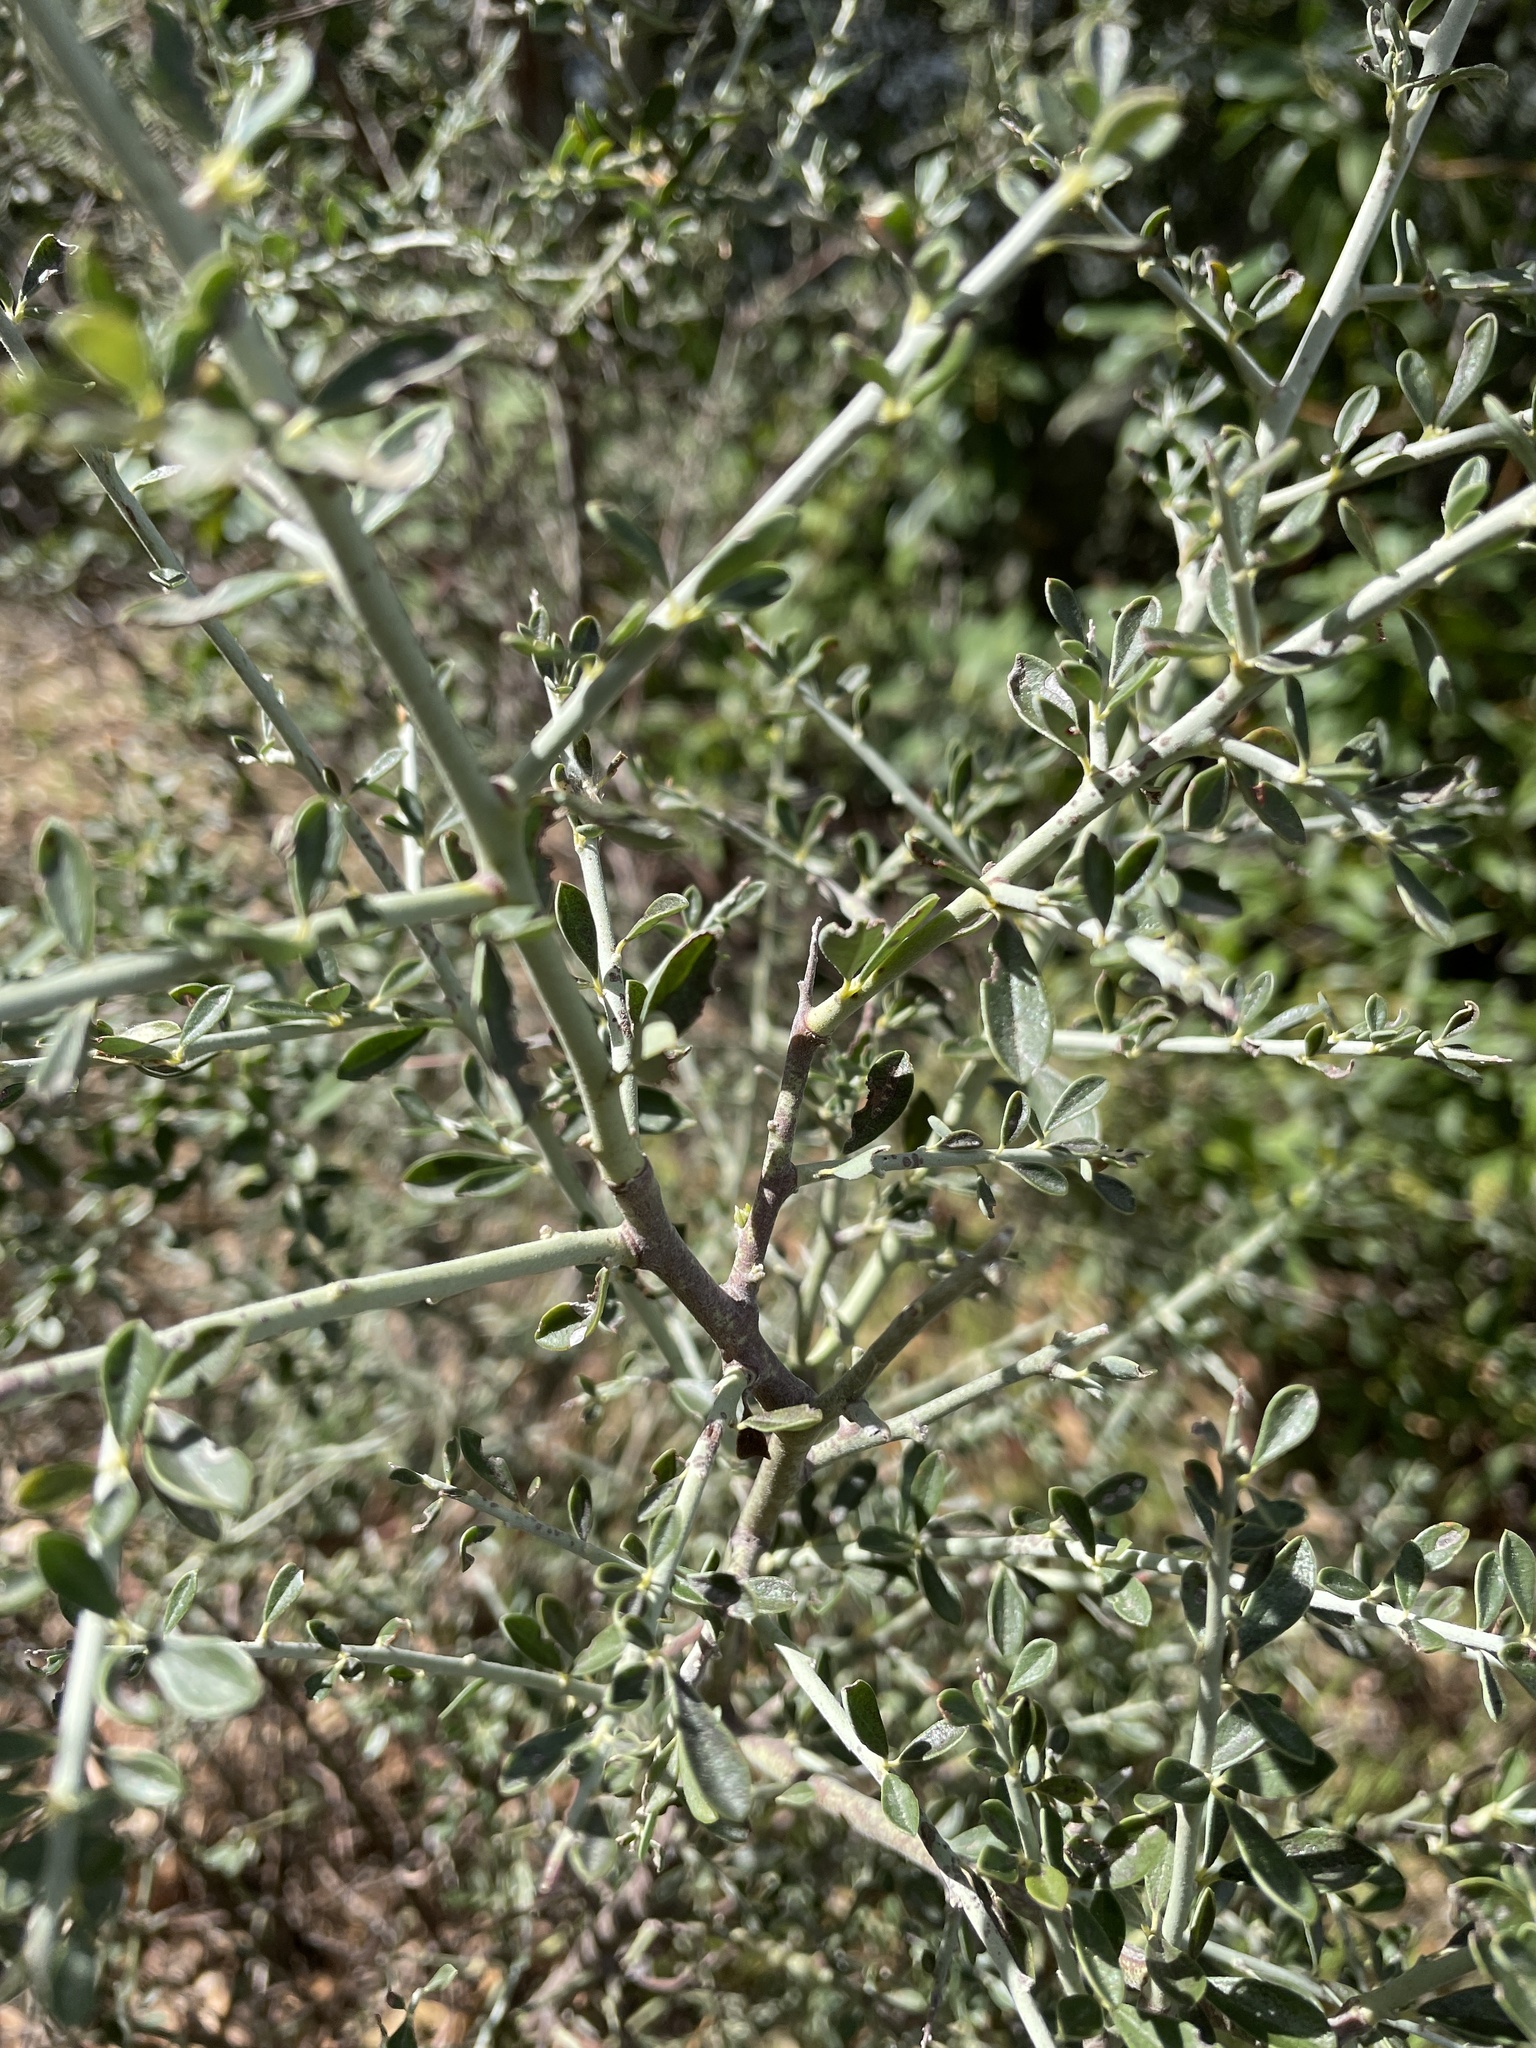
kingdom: Plantae
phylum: Tracheophyta
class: Magnoliopsida
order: Fabales
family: Fabaceae
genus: Pickeringia
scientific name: Pickeringia montana
